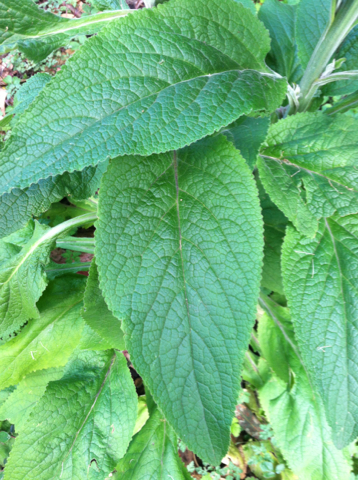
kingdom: Plantae
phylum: Tracheophyta
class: Magnoliopsida
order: Lamiales
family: Plantaginaceae
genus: Digitalis
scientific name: Digitalis purpurea
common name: Foxglove
